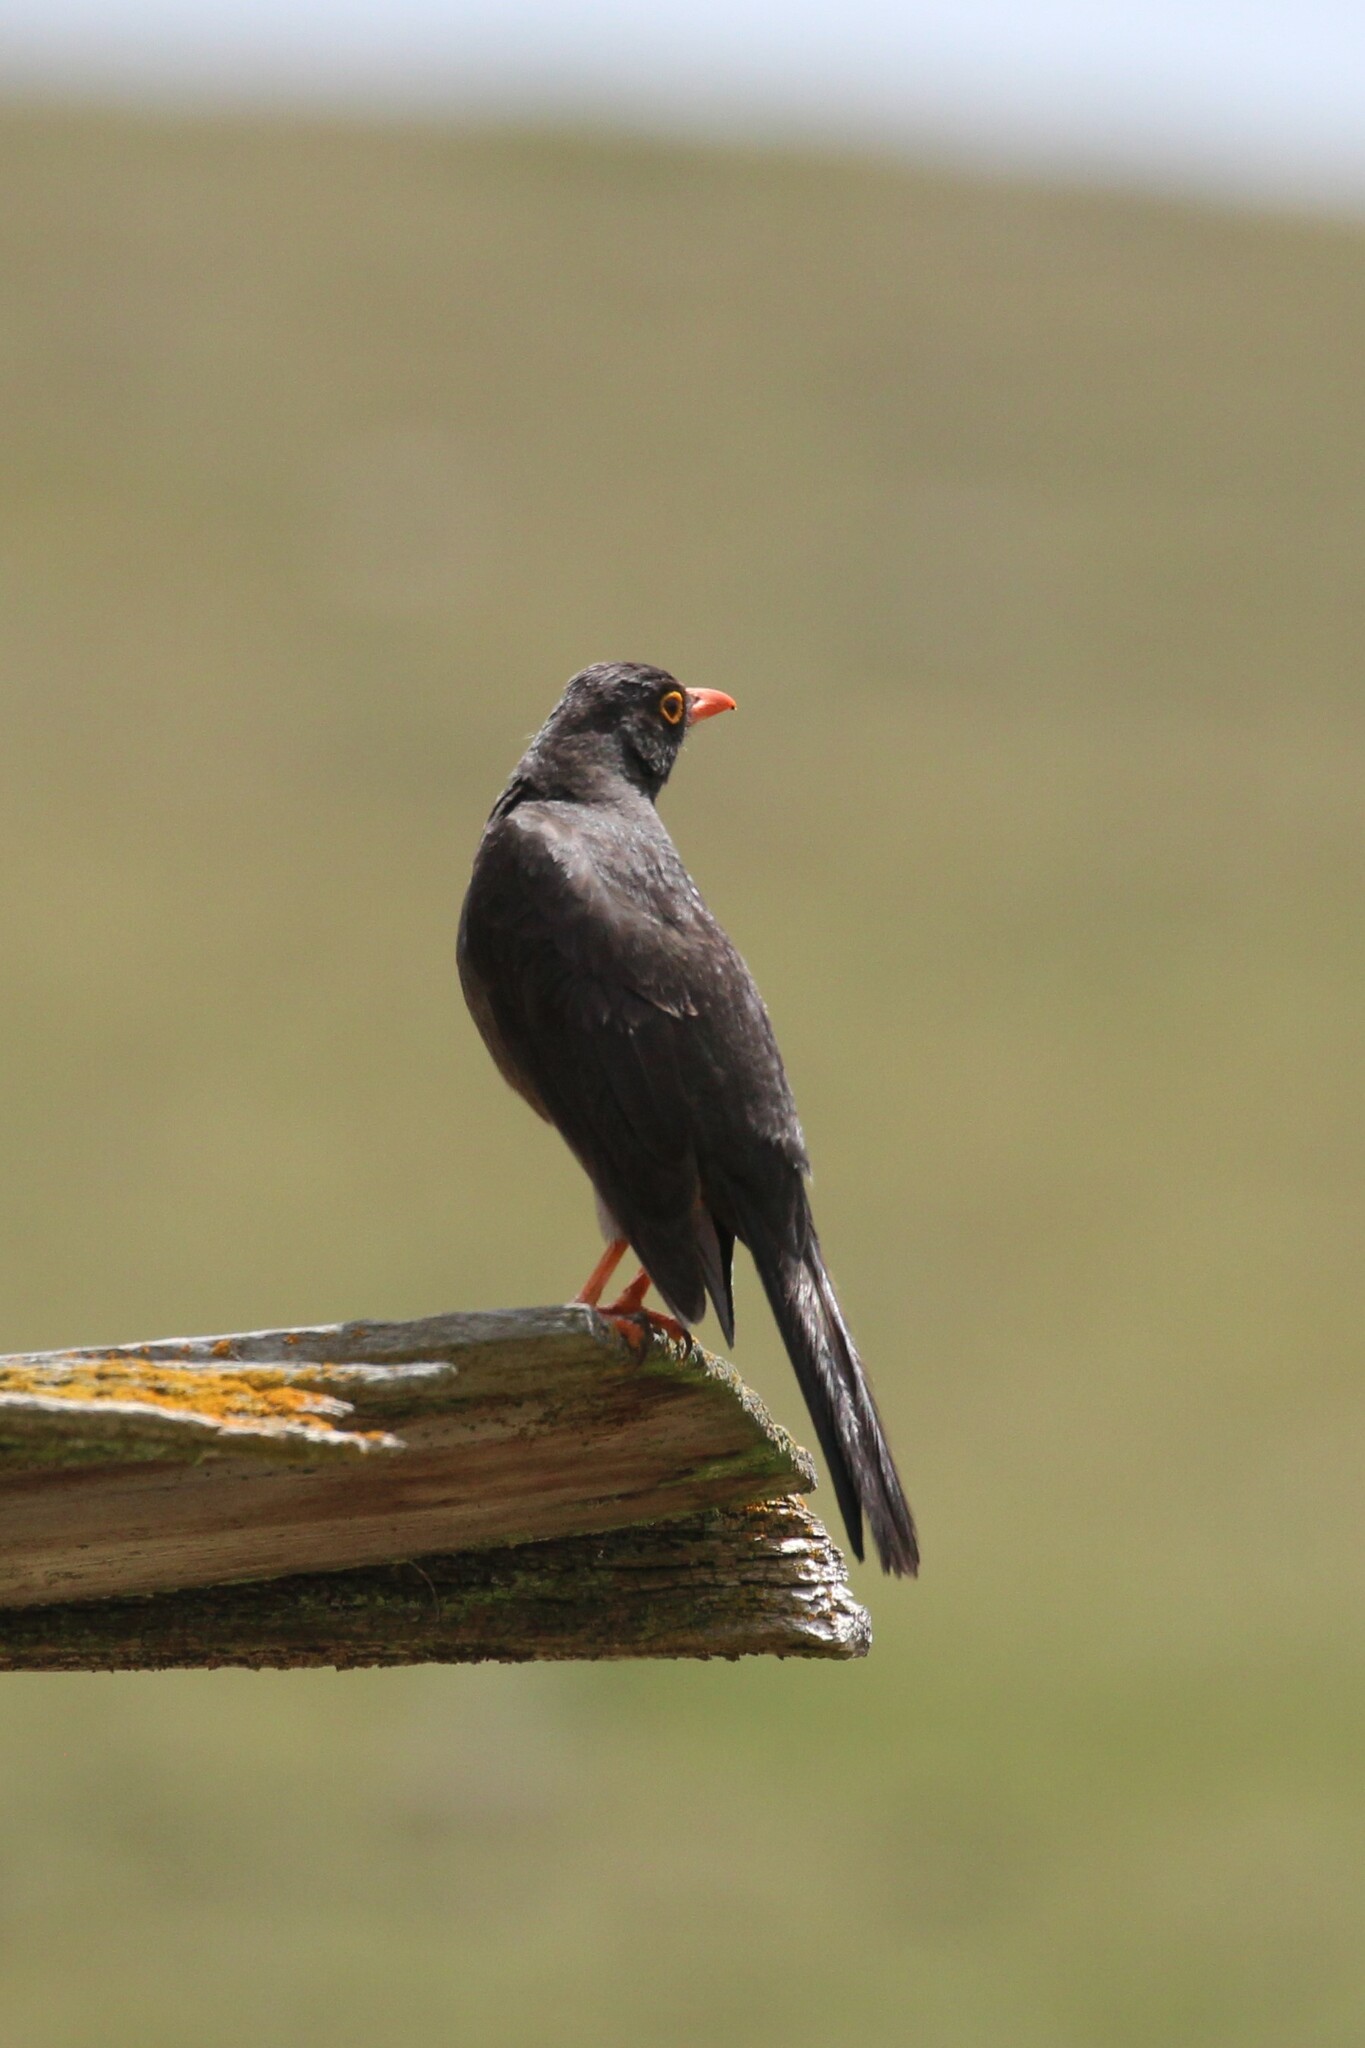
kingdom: Animalia
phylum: Chordata
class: Aves
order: Passeriformes
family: Turdidae
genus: Turdus
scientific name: Turdus fuscater
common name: Great thrush
